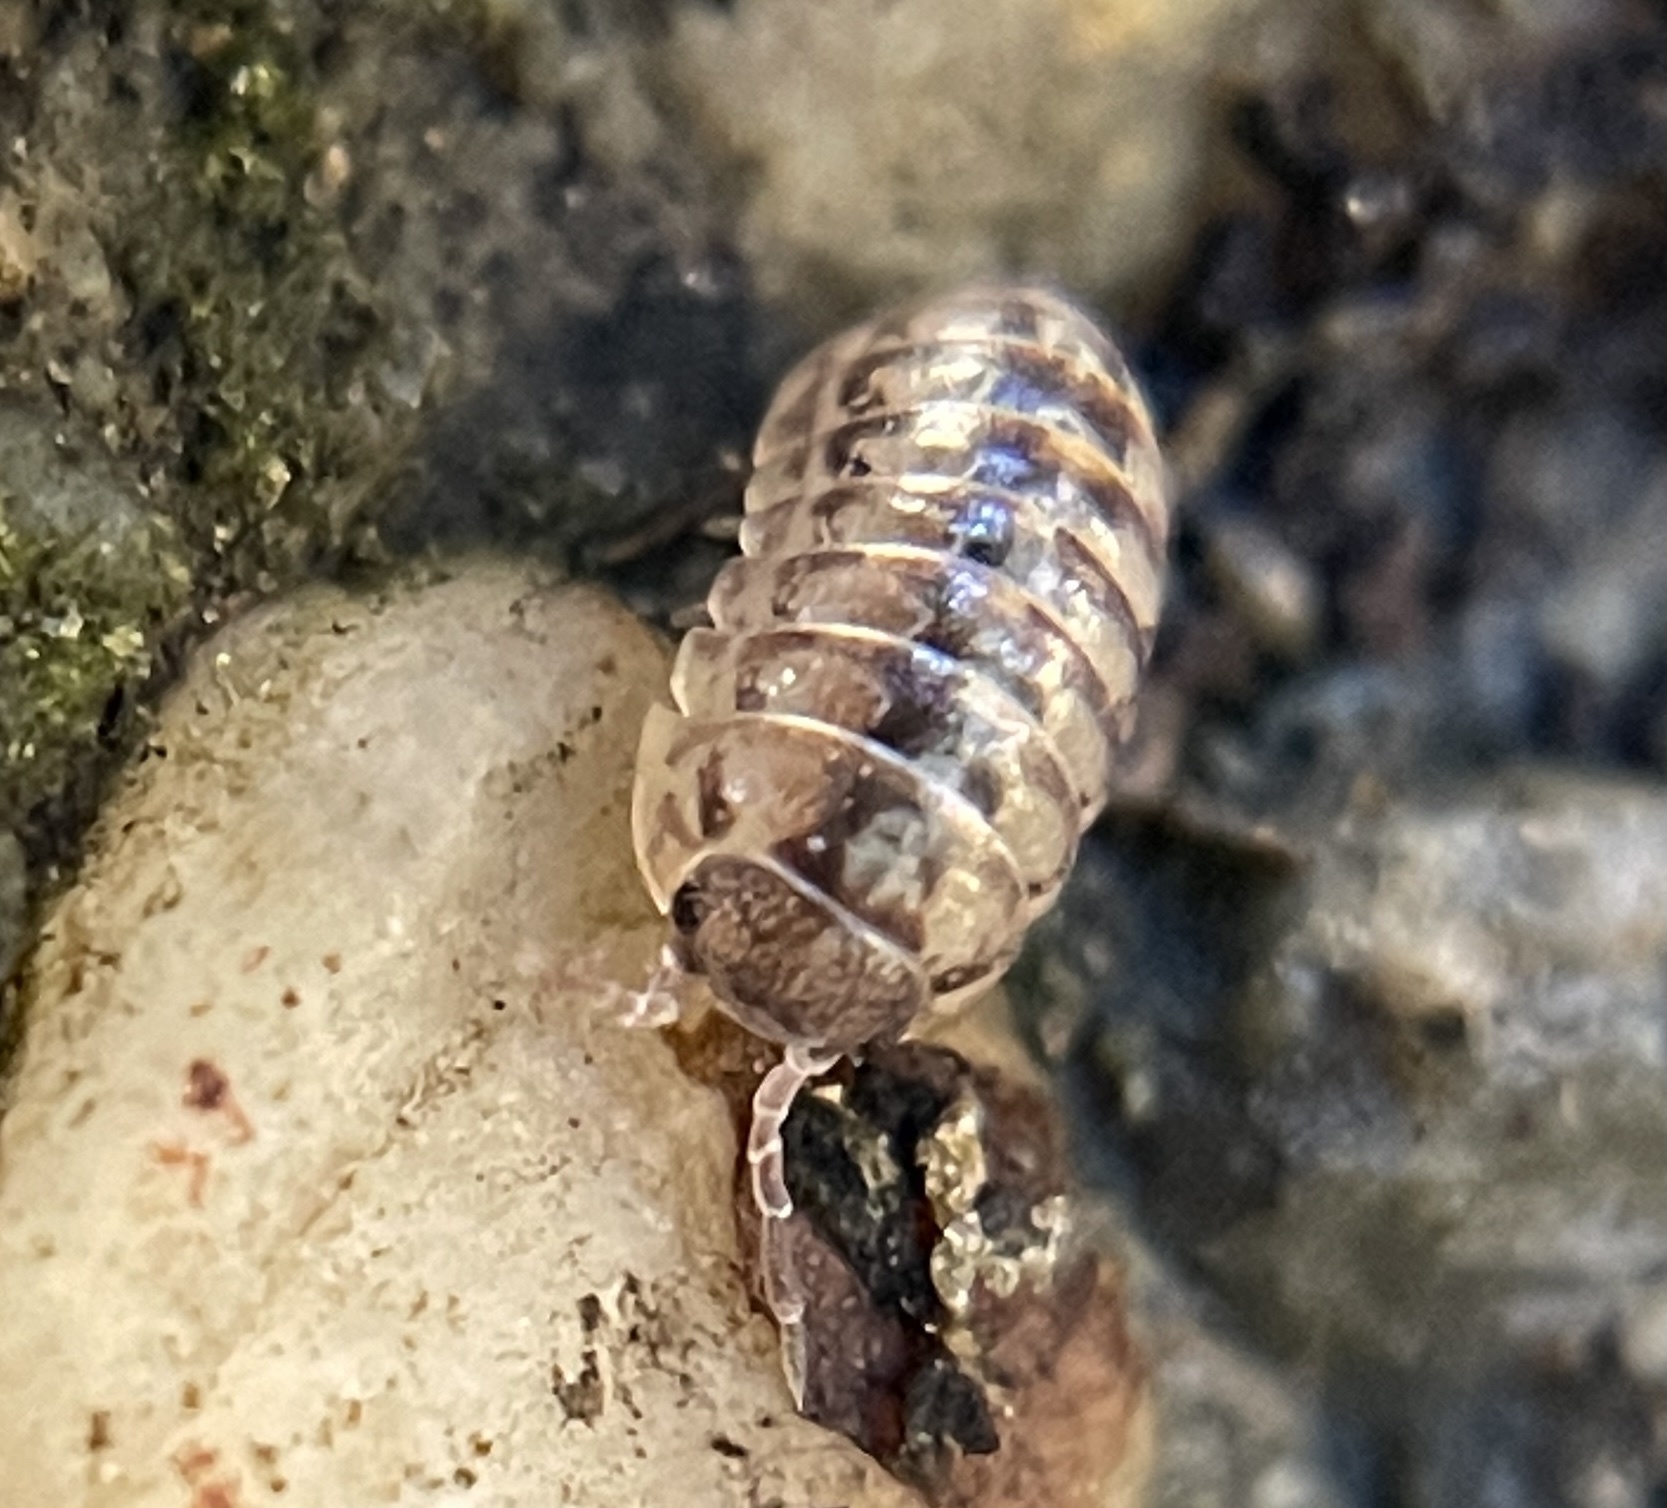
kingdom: Animalia
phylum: Arthropoda
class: Malacostraca
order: Isopoda
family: Armadillidiidae
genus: Armadillidium
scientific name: Armadillidium vulgare
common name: Common pill woodlouse
